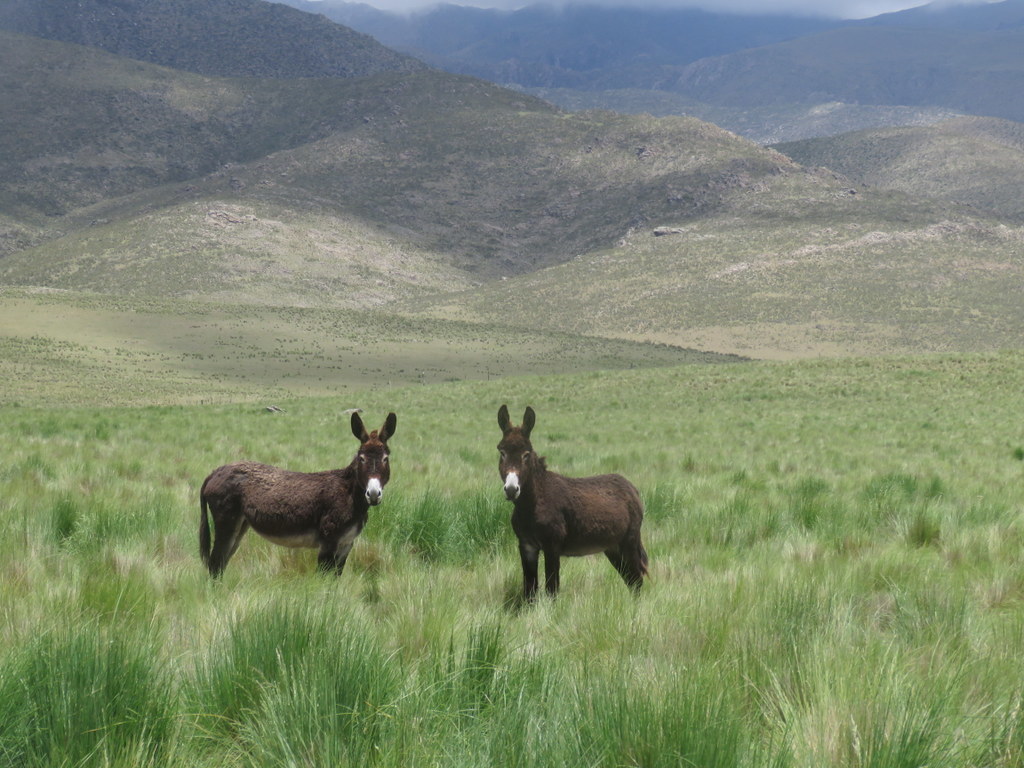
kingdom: Animalia
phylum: Chordata
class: Mammalia
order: Perissodactyla
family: Equidae
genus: Equus
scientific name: Equus asinus
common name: Ass
